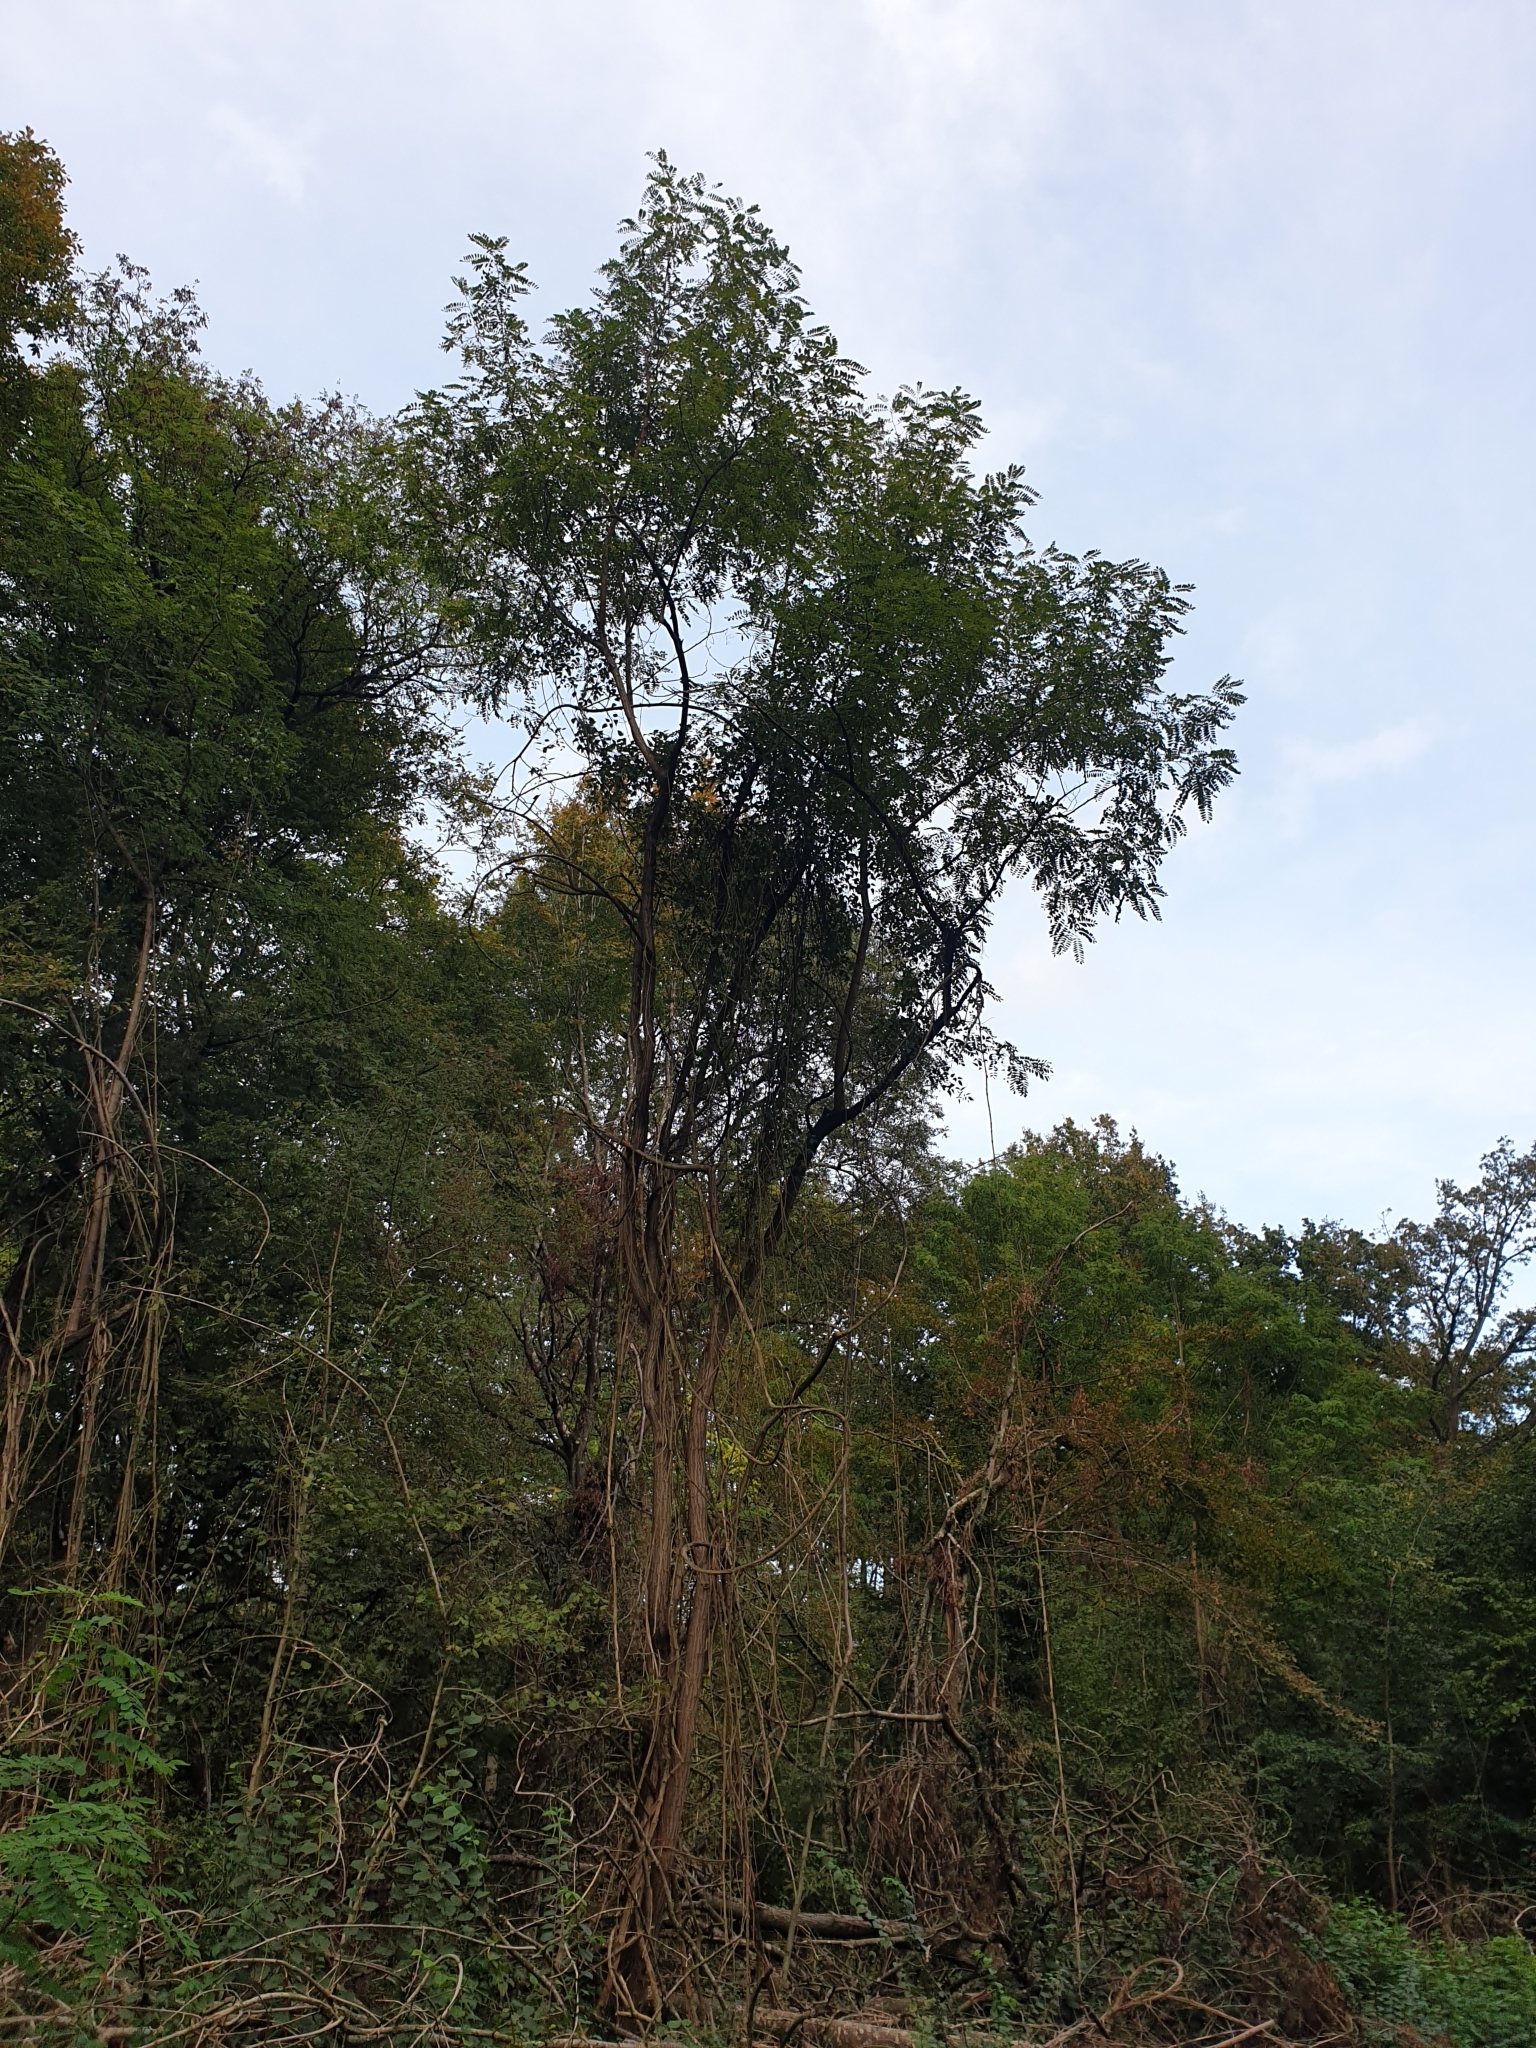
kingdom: Plantae
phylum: Tracheophyta
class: Magnoliopsida
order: Fabales
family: Fabaceae
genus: Robinia
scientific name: Robinia pseudoacacia
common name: Black locust
